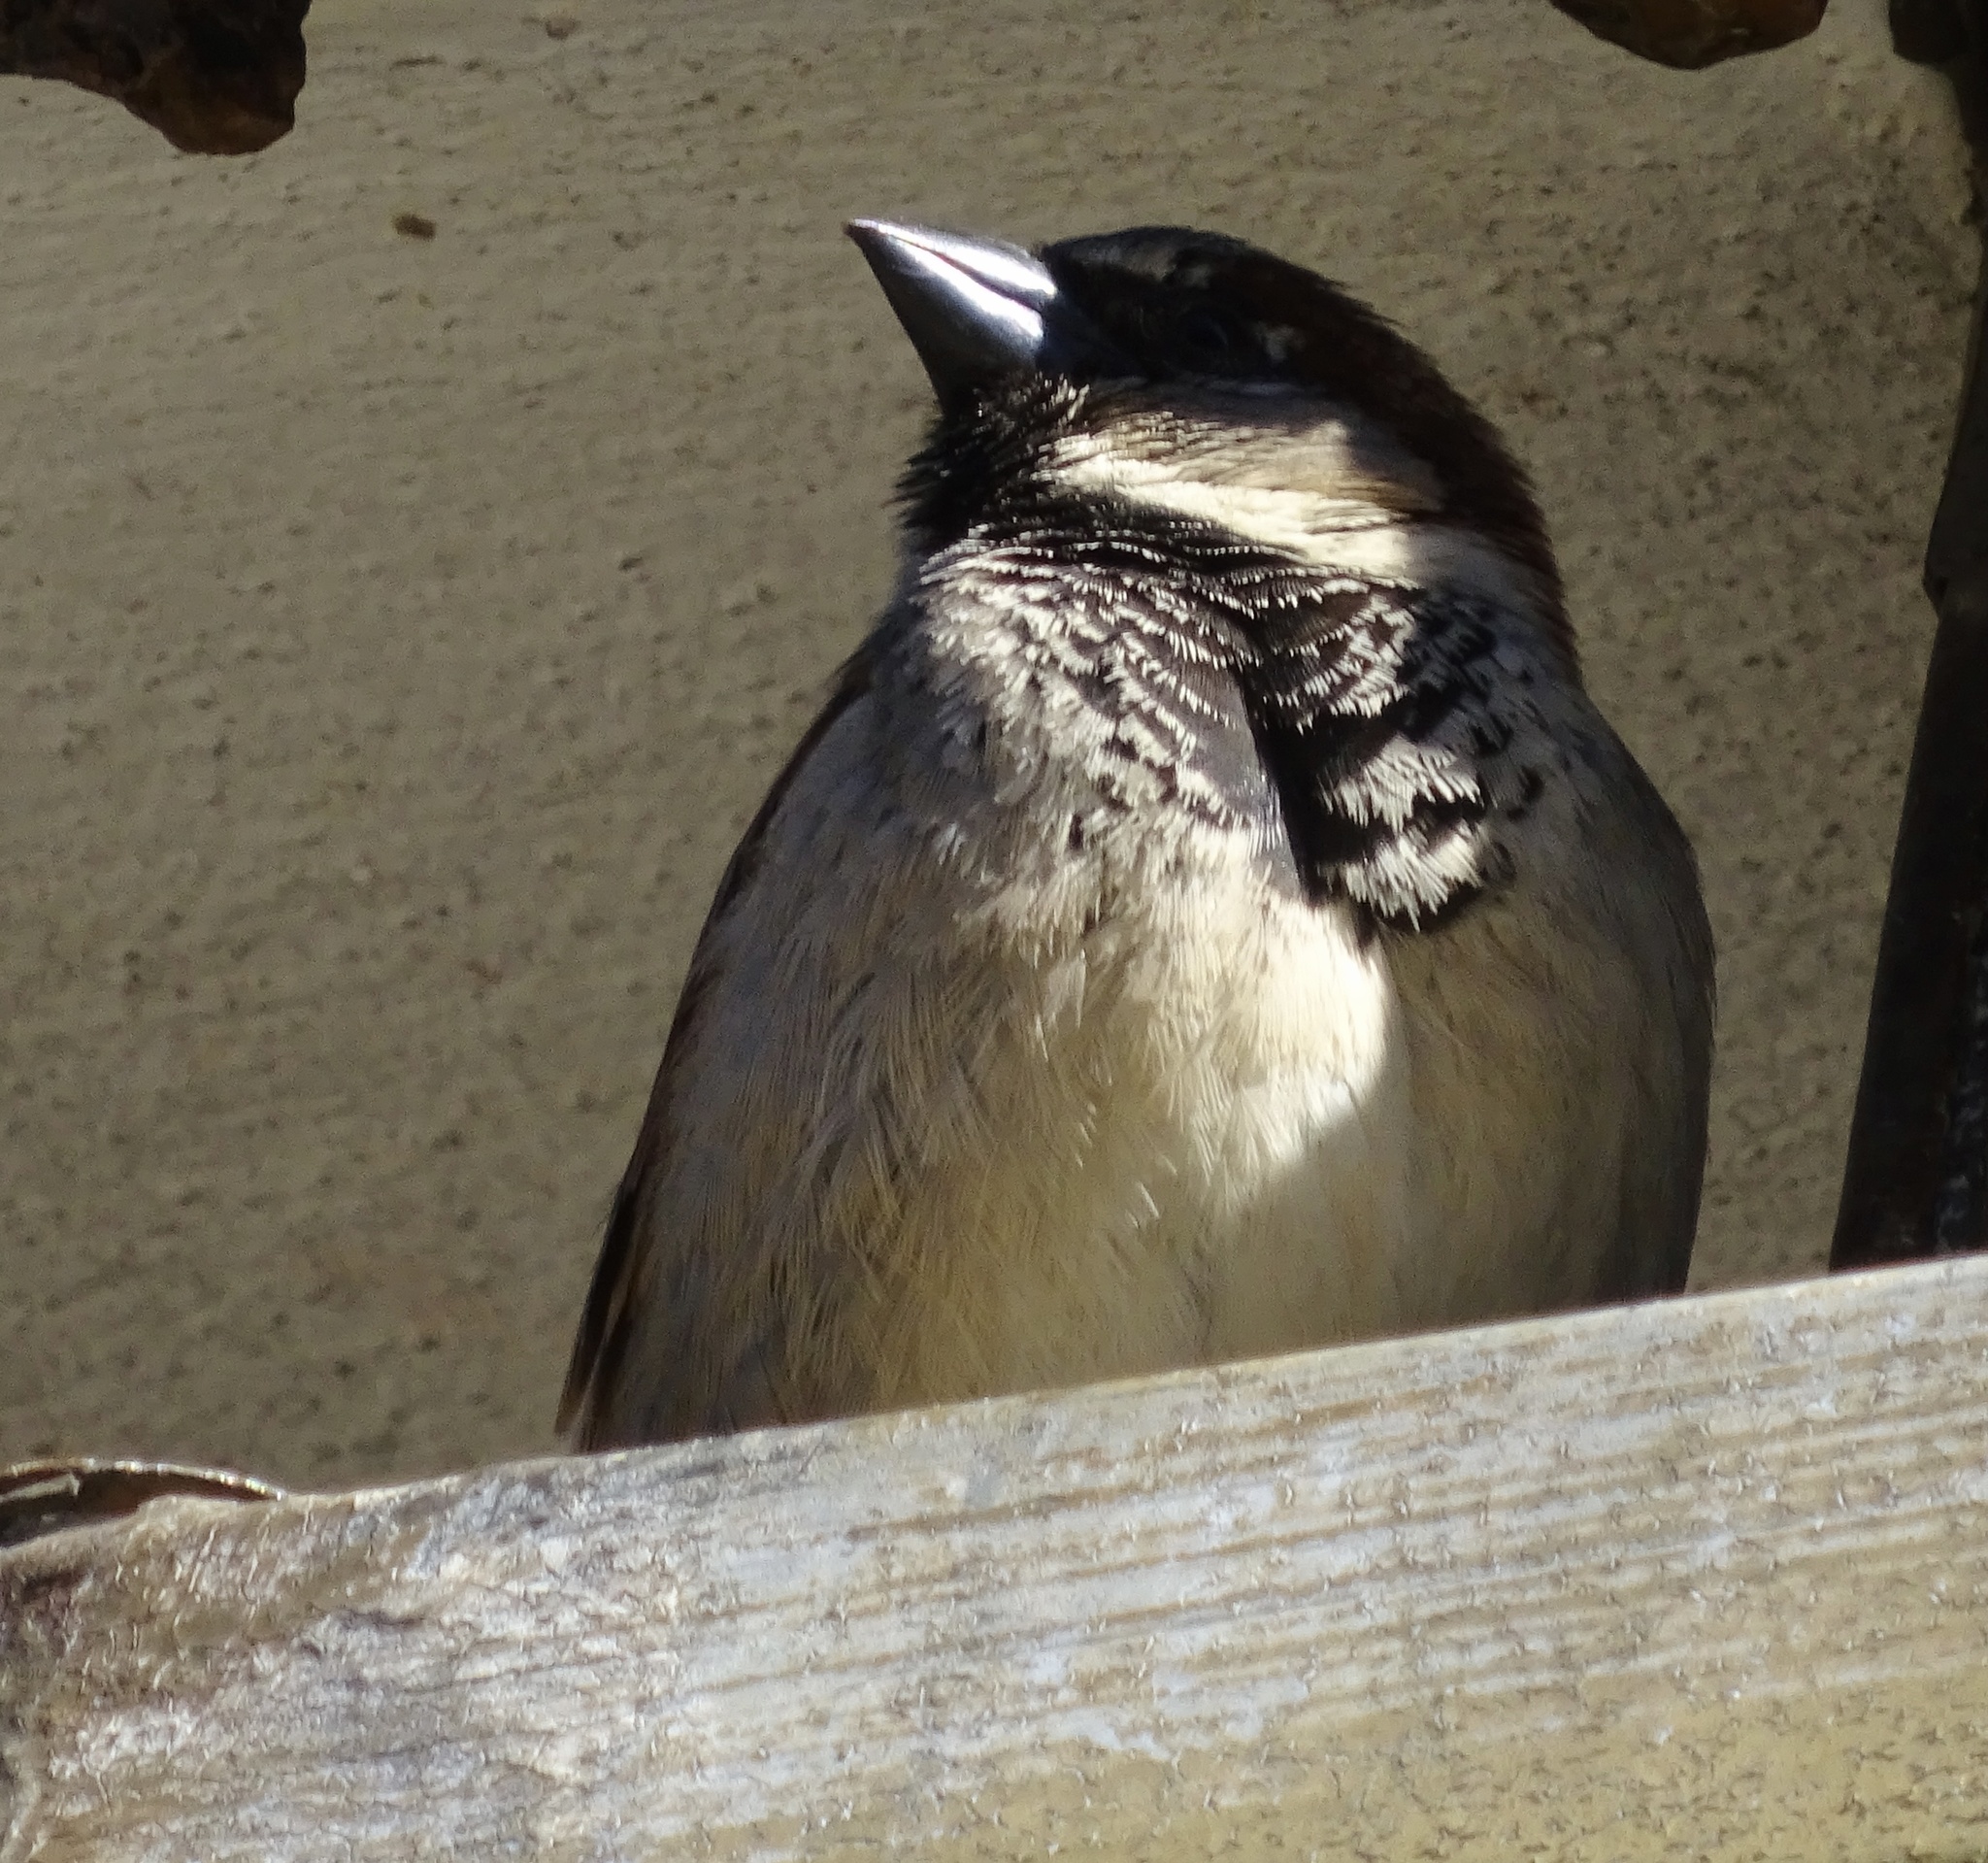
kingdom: Animalia
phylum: Chordata
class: Aves
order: Passeriformes
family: Passeridae
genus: Passer
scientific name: Passer domesticus
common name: House sparrow
